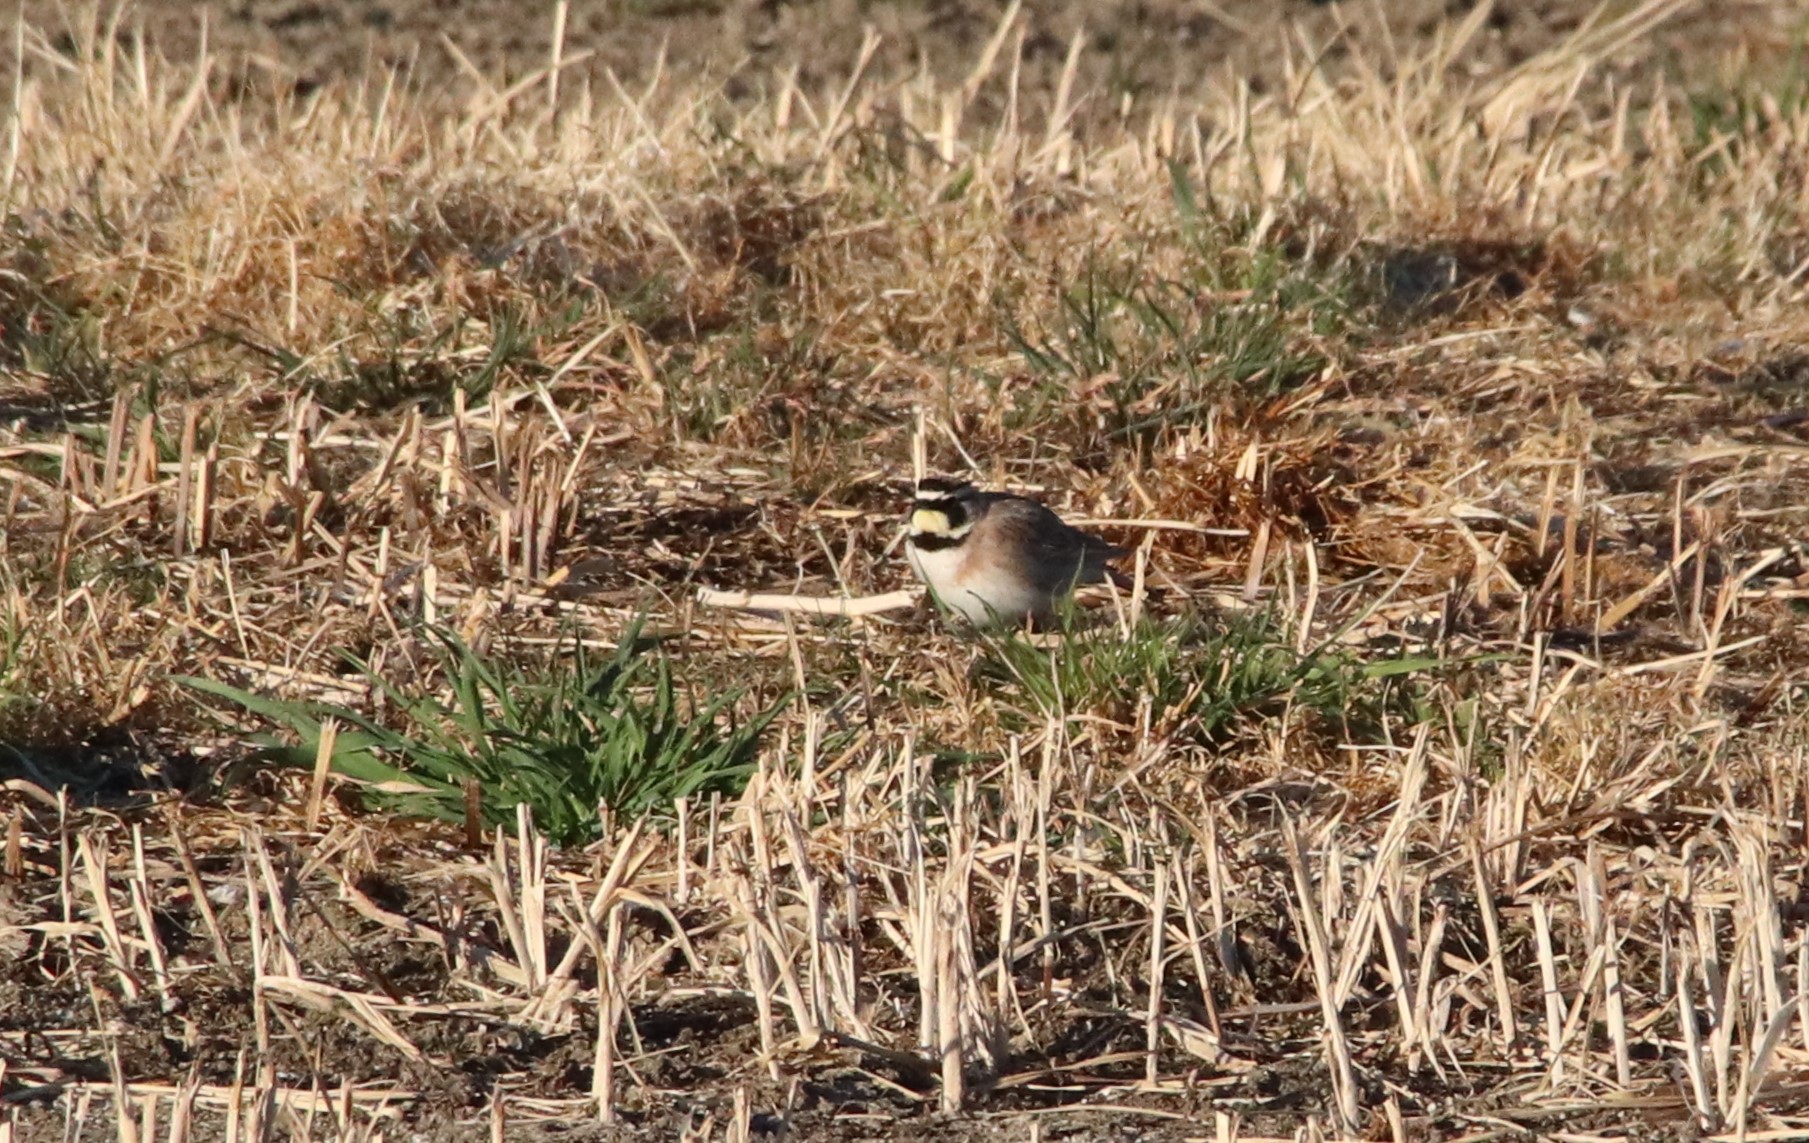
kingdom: Animalia
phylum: Chordata
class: Aves
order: Passeriformes
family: Alaudidae
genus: Eremophila
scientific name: Eremophila alpestris
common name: Horned lark
